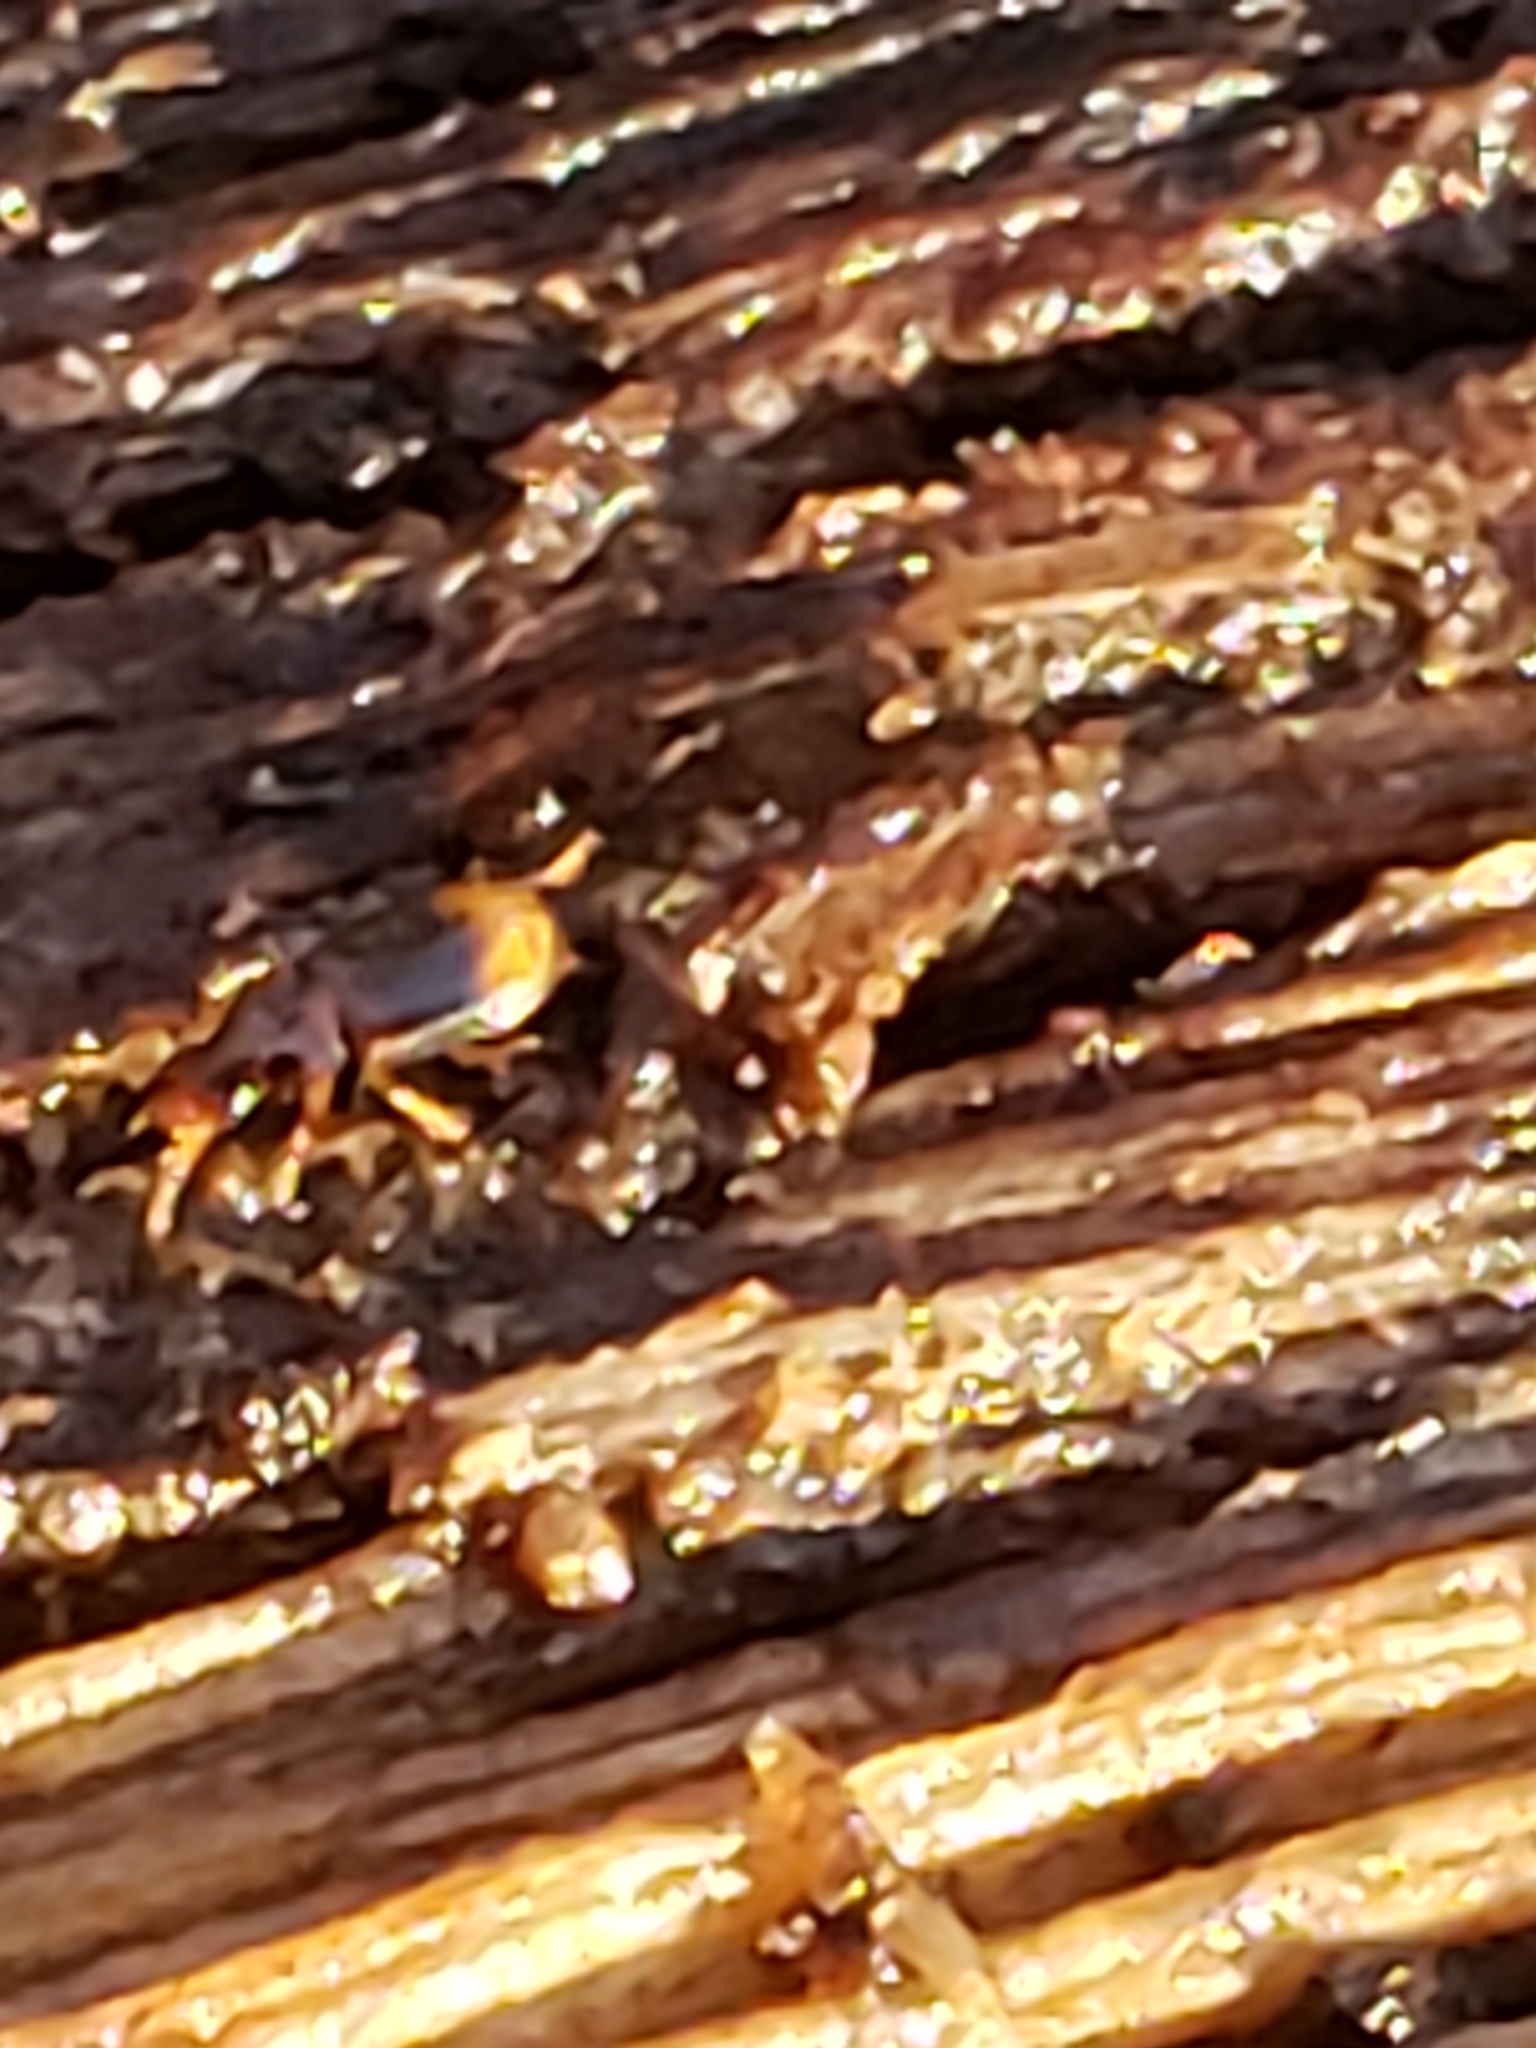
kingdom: Animalia
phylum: Arthropoda
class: Insecta
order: Coleoptera
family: Carabidae
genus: Mioptachys
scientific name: Mioptachys flavicauda
